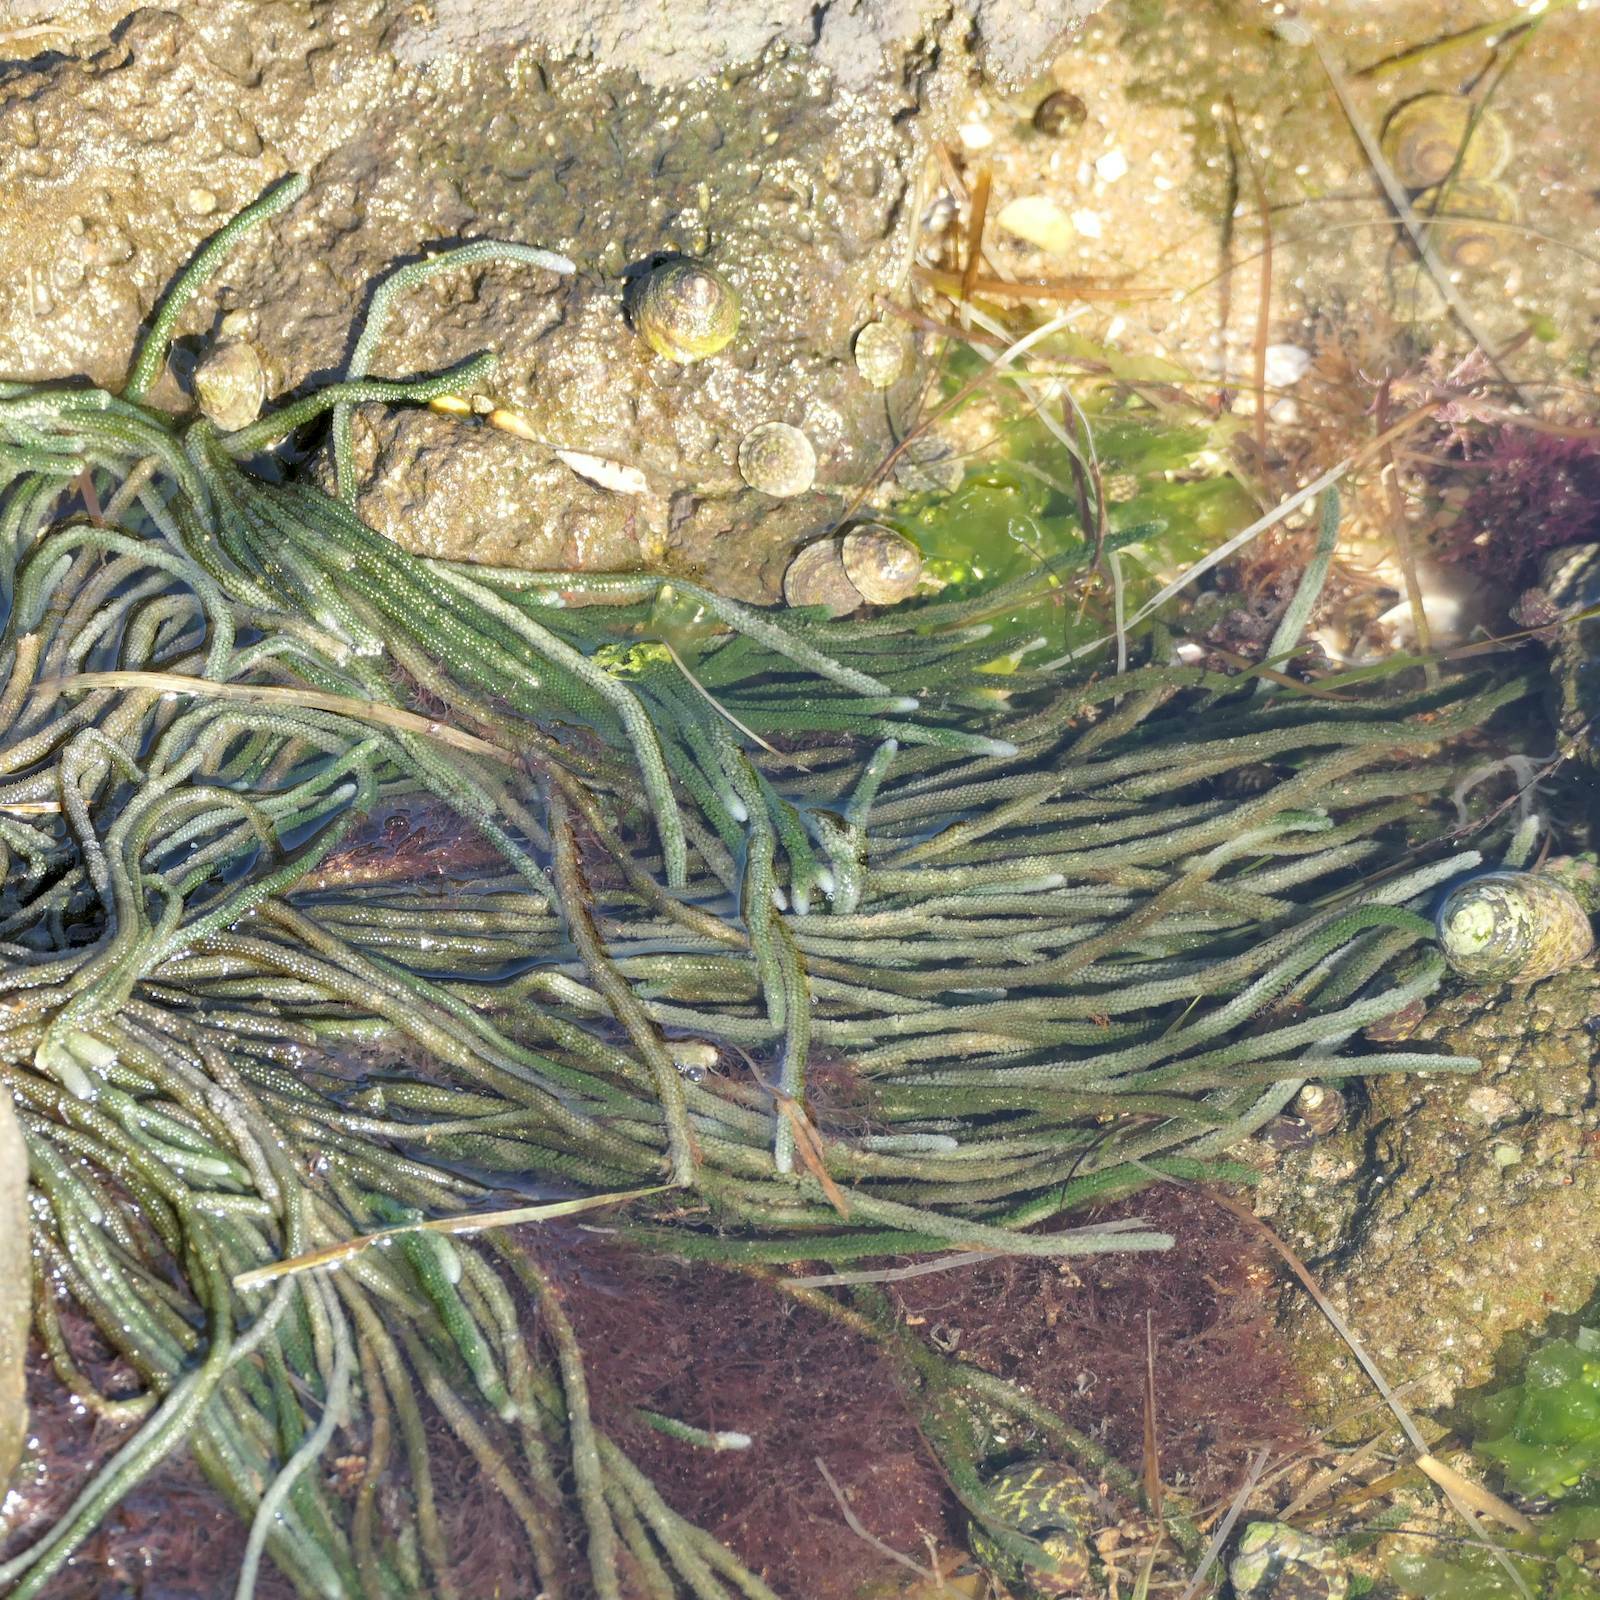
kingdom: Plantae
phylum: Chlorophyta
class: Ulvophyceae
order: Bryopsidales
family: Caulerpaceae
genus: Caulerpa
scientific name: Caulerpa simpliciuscula
